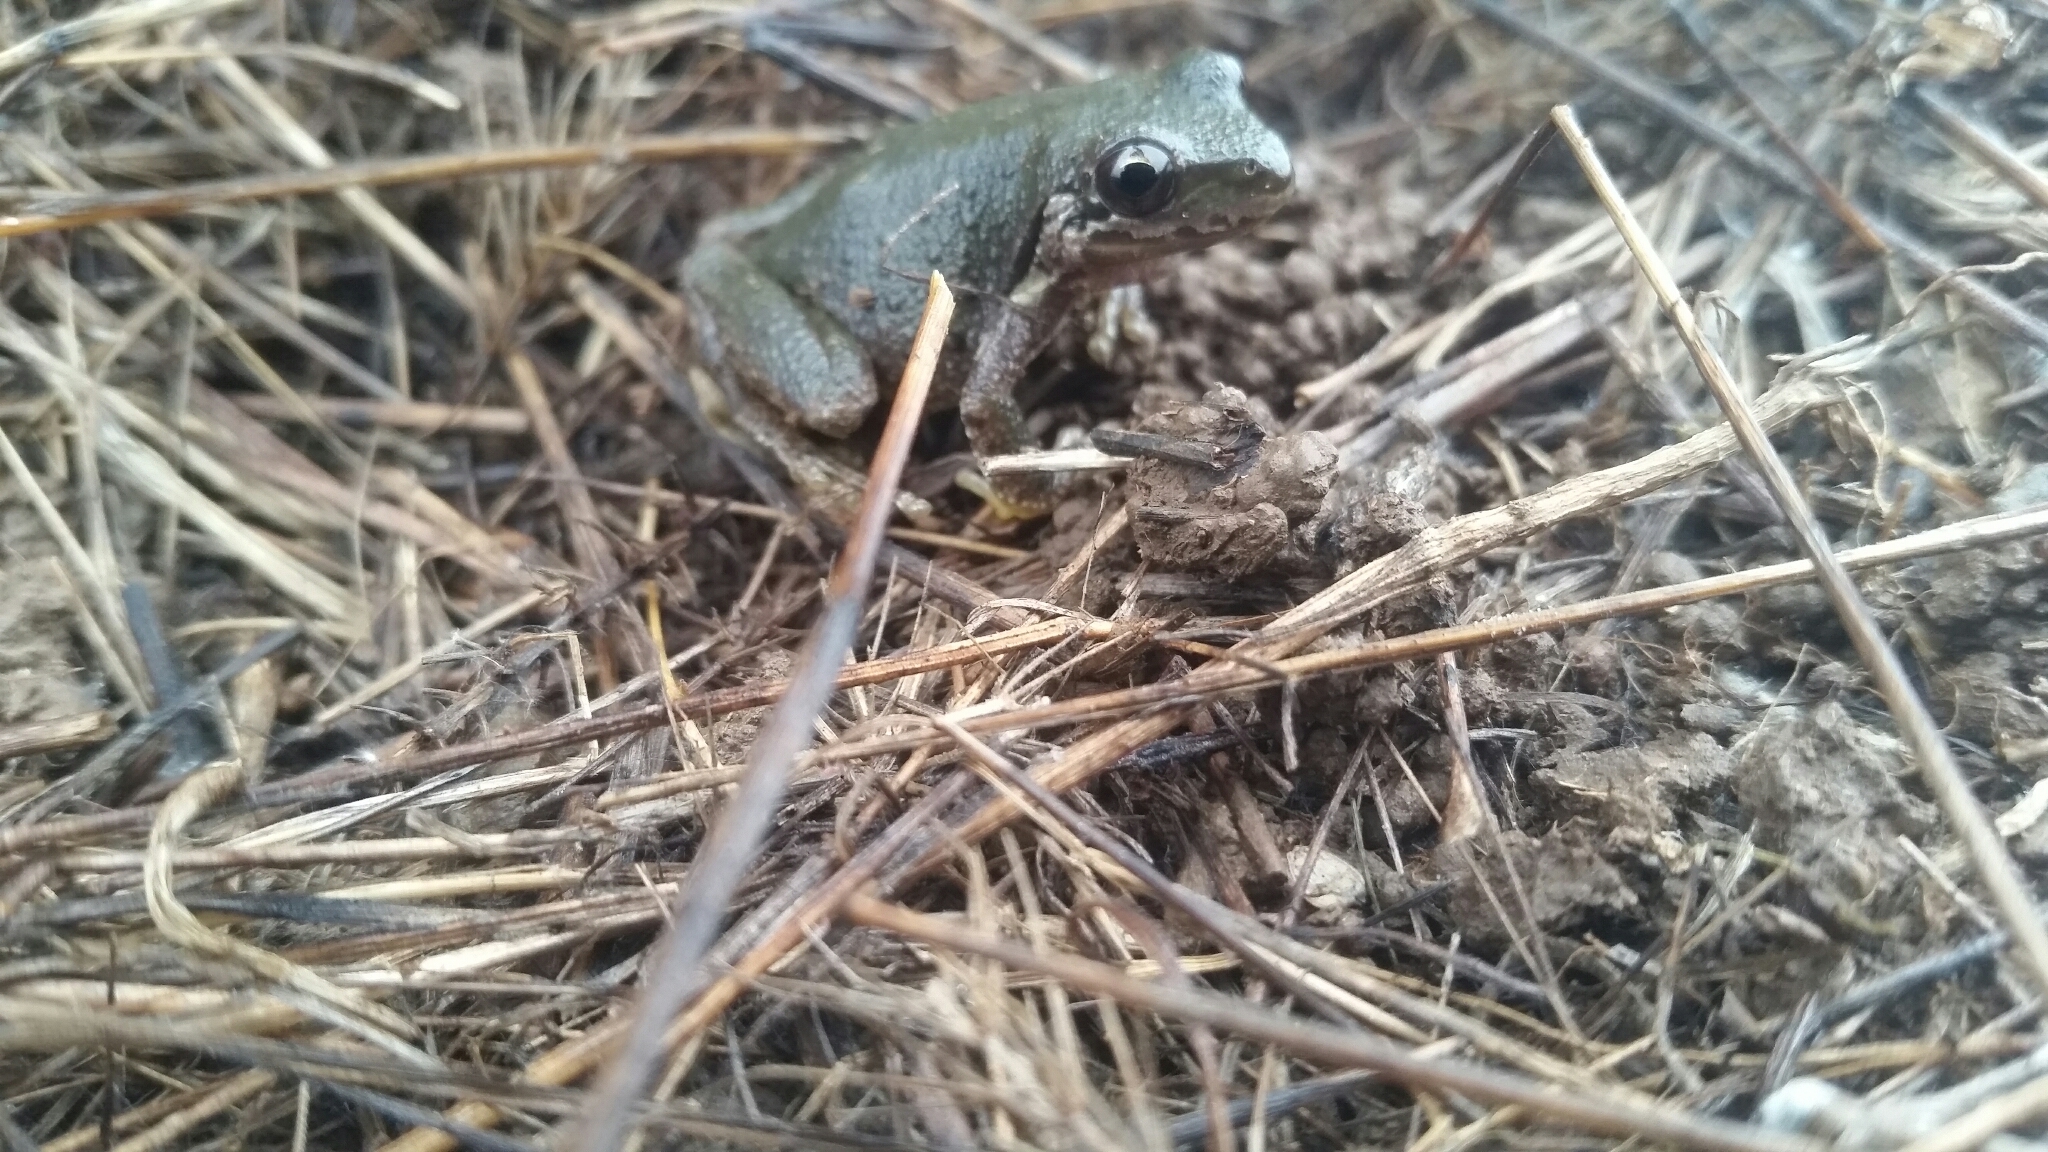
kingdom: Animalia
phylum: Chordata
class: Amphibia
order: Anura
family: Hylidae
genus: Pseudacris
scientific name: Pseudacris regilla
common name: Pacific chorus frog
